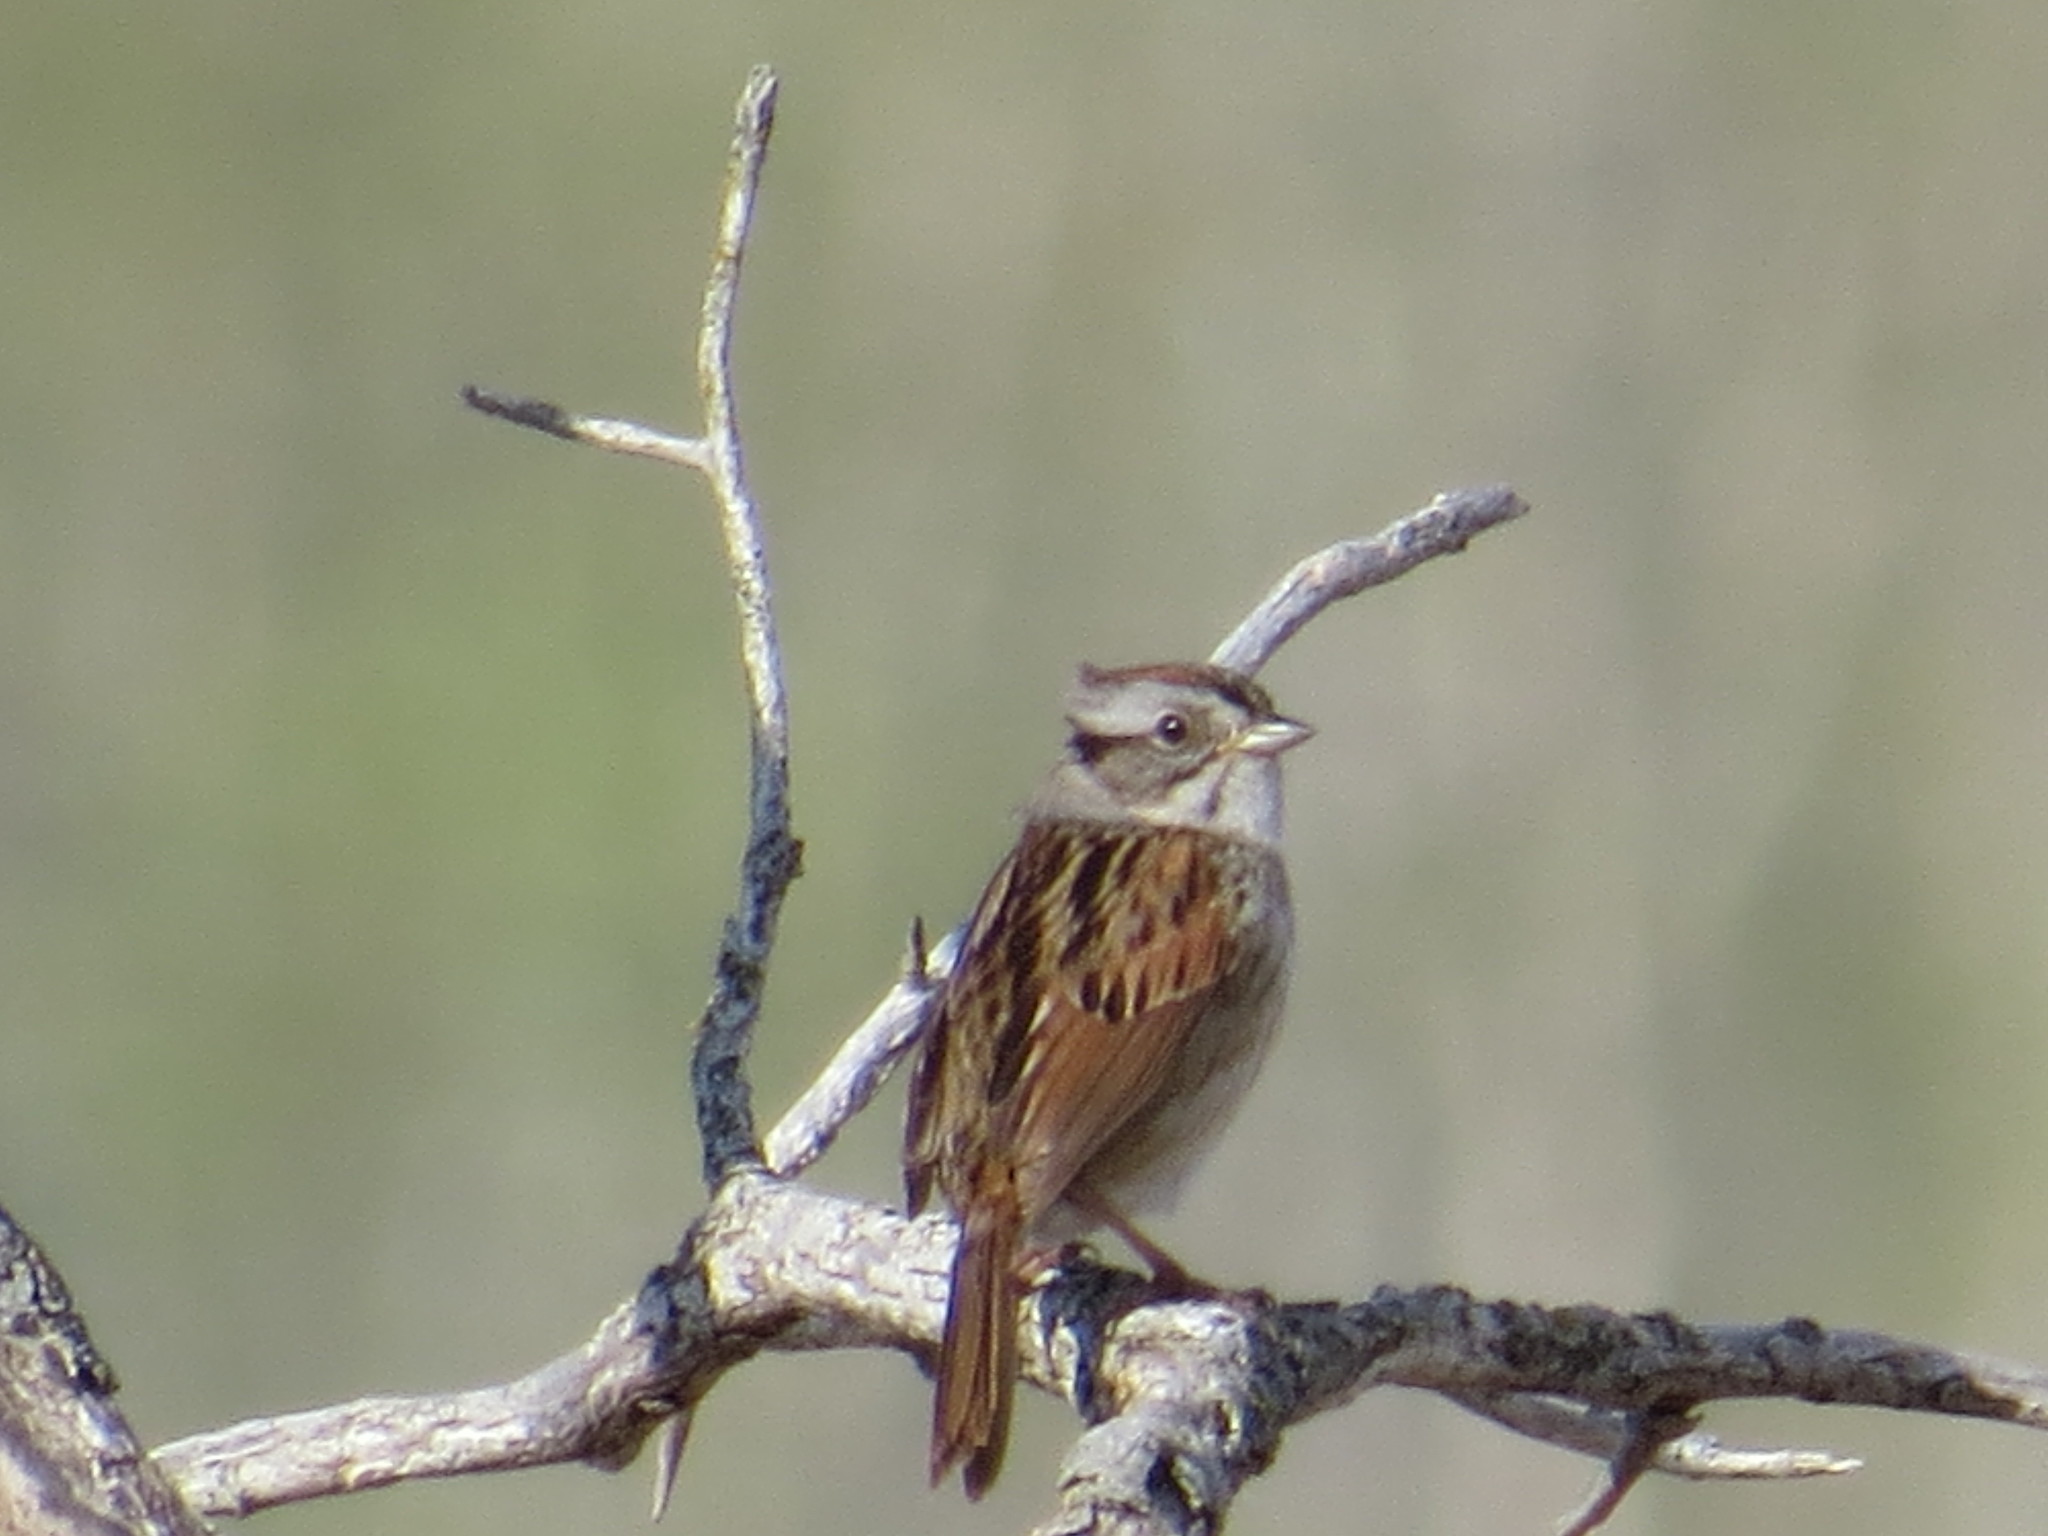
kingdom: Animalia
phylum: Chordata
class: Aves
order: Passeriformes
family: Passerellidae
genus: Melospiza
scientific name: Melospiza georgiana
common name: Swamp sparrow
